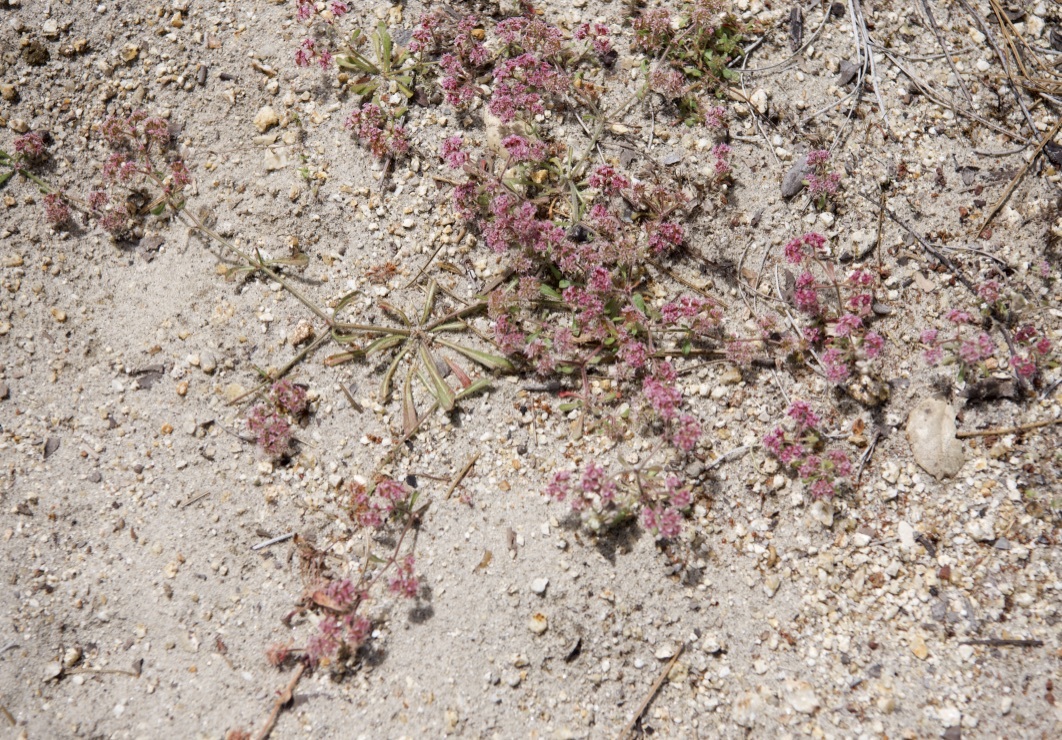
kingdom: Plantae
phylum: Tracheophyta
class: Magnoliopsida
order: Caryophyllales
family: Polygonaceae
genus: Chorizanthe
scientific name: Chorizanthe pungens
